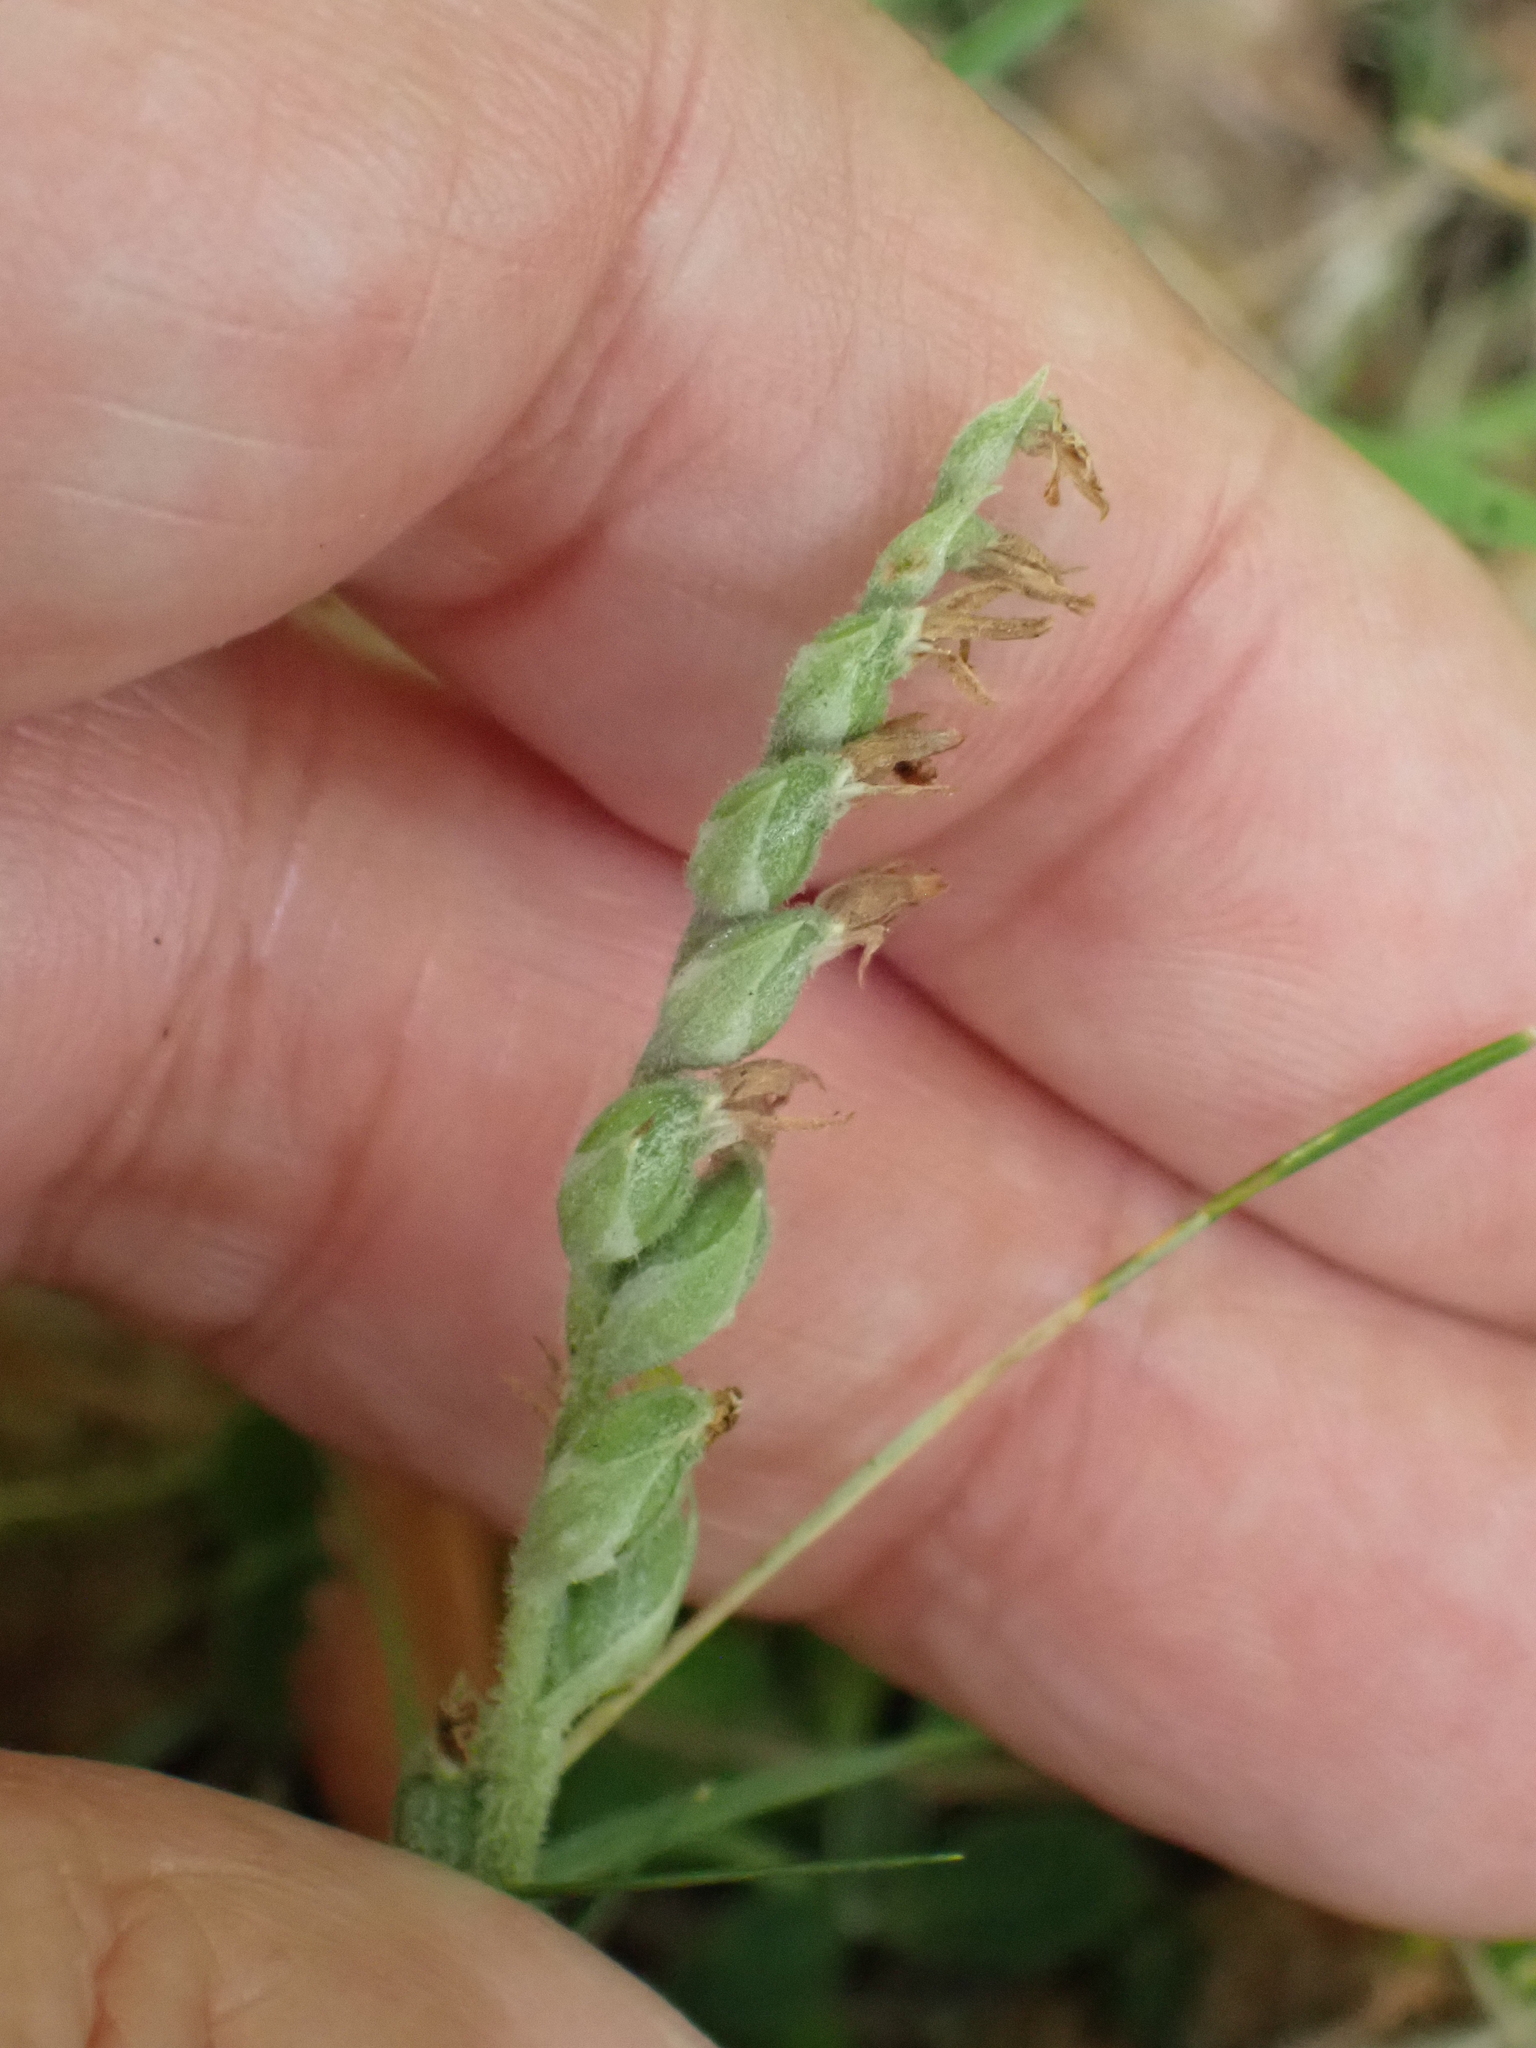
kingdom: Plantae
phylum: Tracheophyta
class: Liliopsida
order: Asparagales
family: Orchidaceae
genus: Spiranthes
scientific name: Spiranthes spiralis
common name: Autumn lady's-tresses
